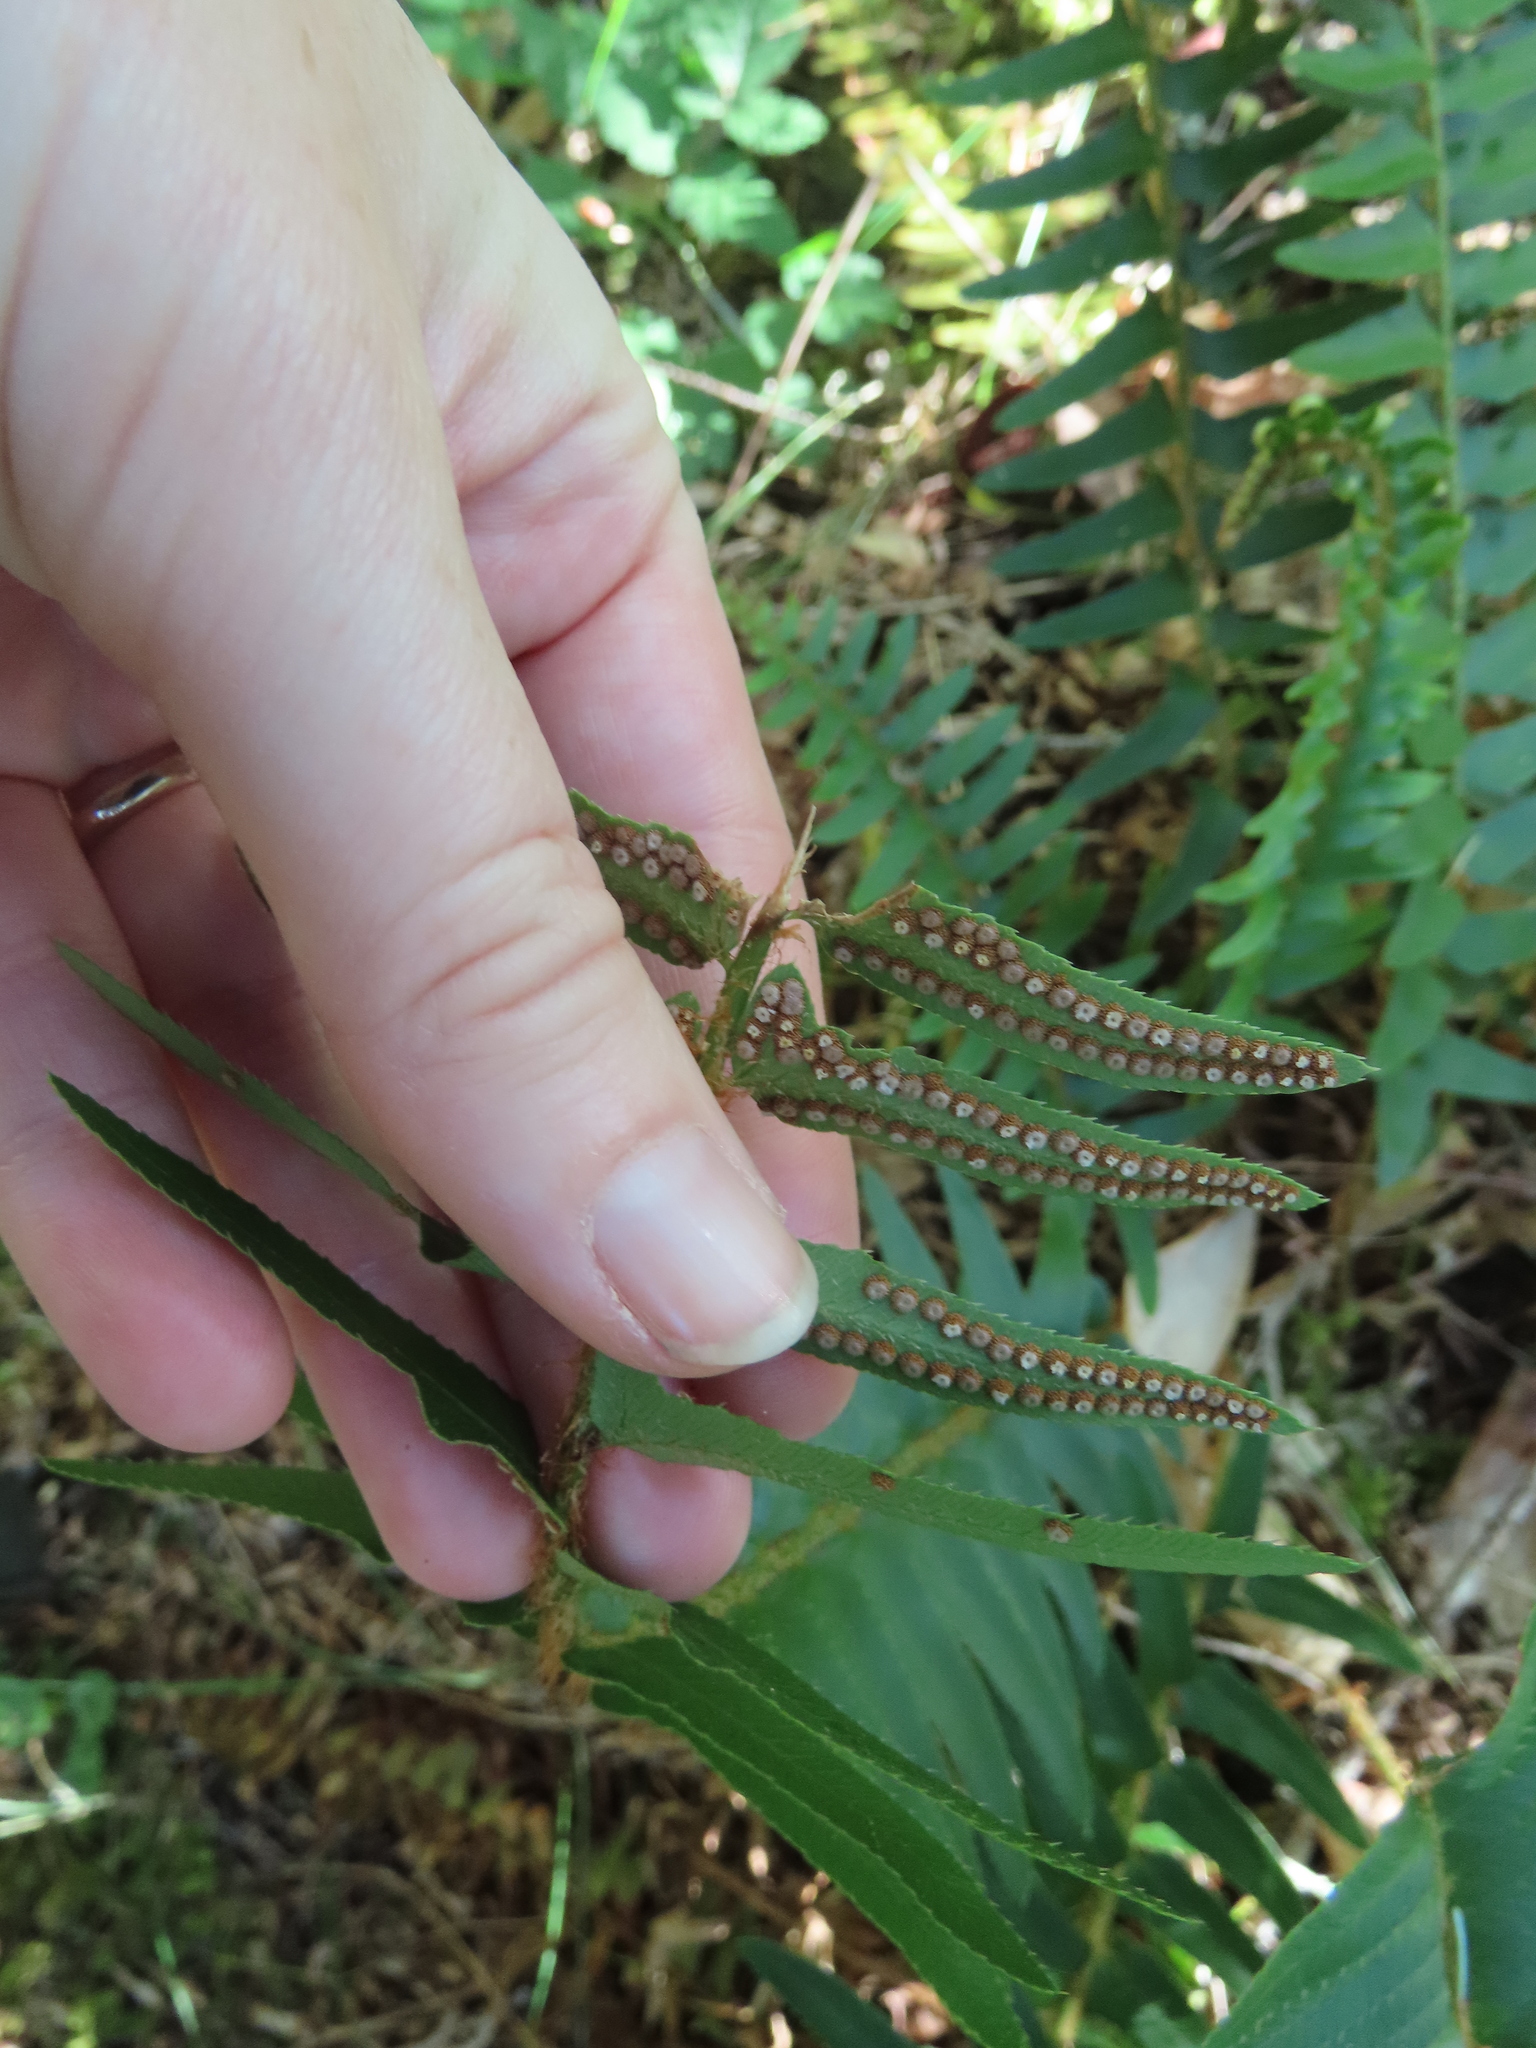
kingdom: Plantae
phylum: Tracheophyta
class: Polypodiopsida
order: Polypodiales
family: Dryopteridaceae
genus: Polystichum
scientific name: Polystichum munitum
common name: Western sword-fern
